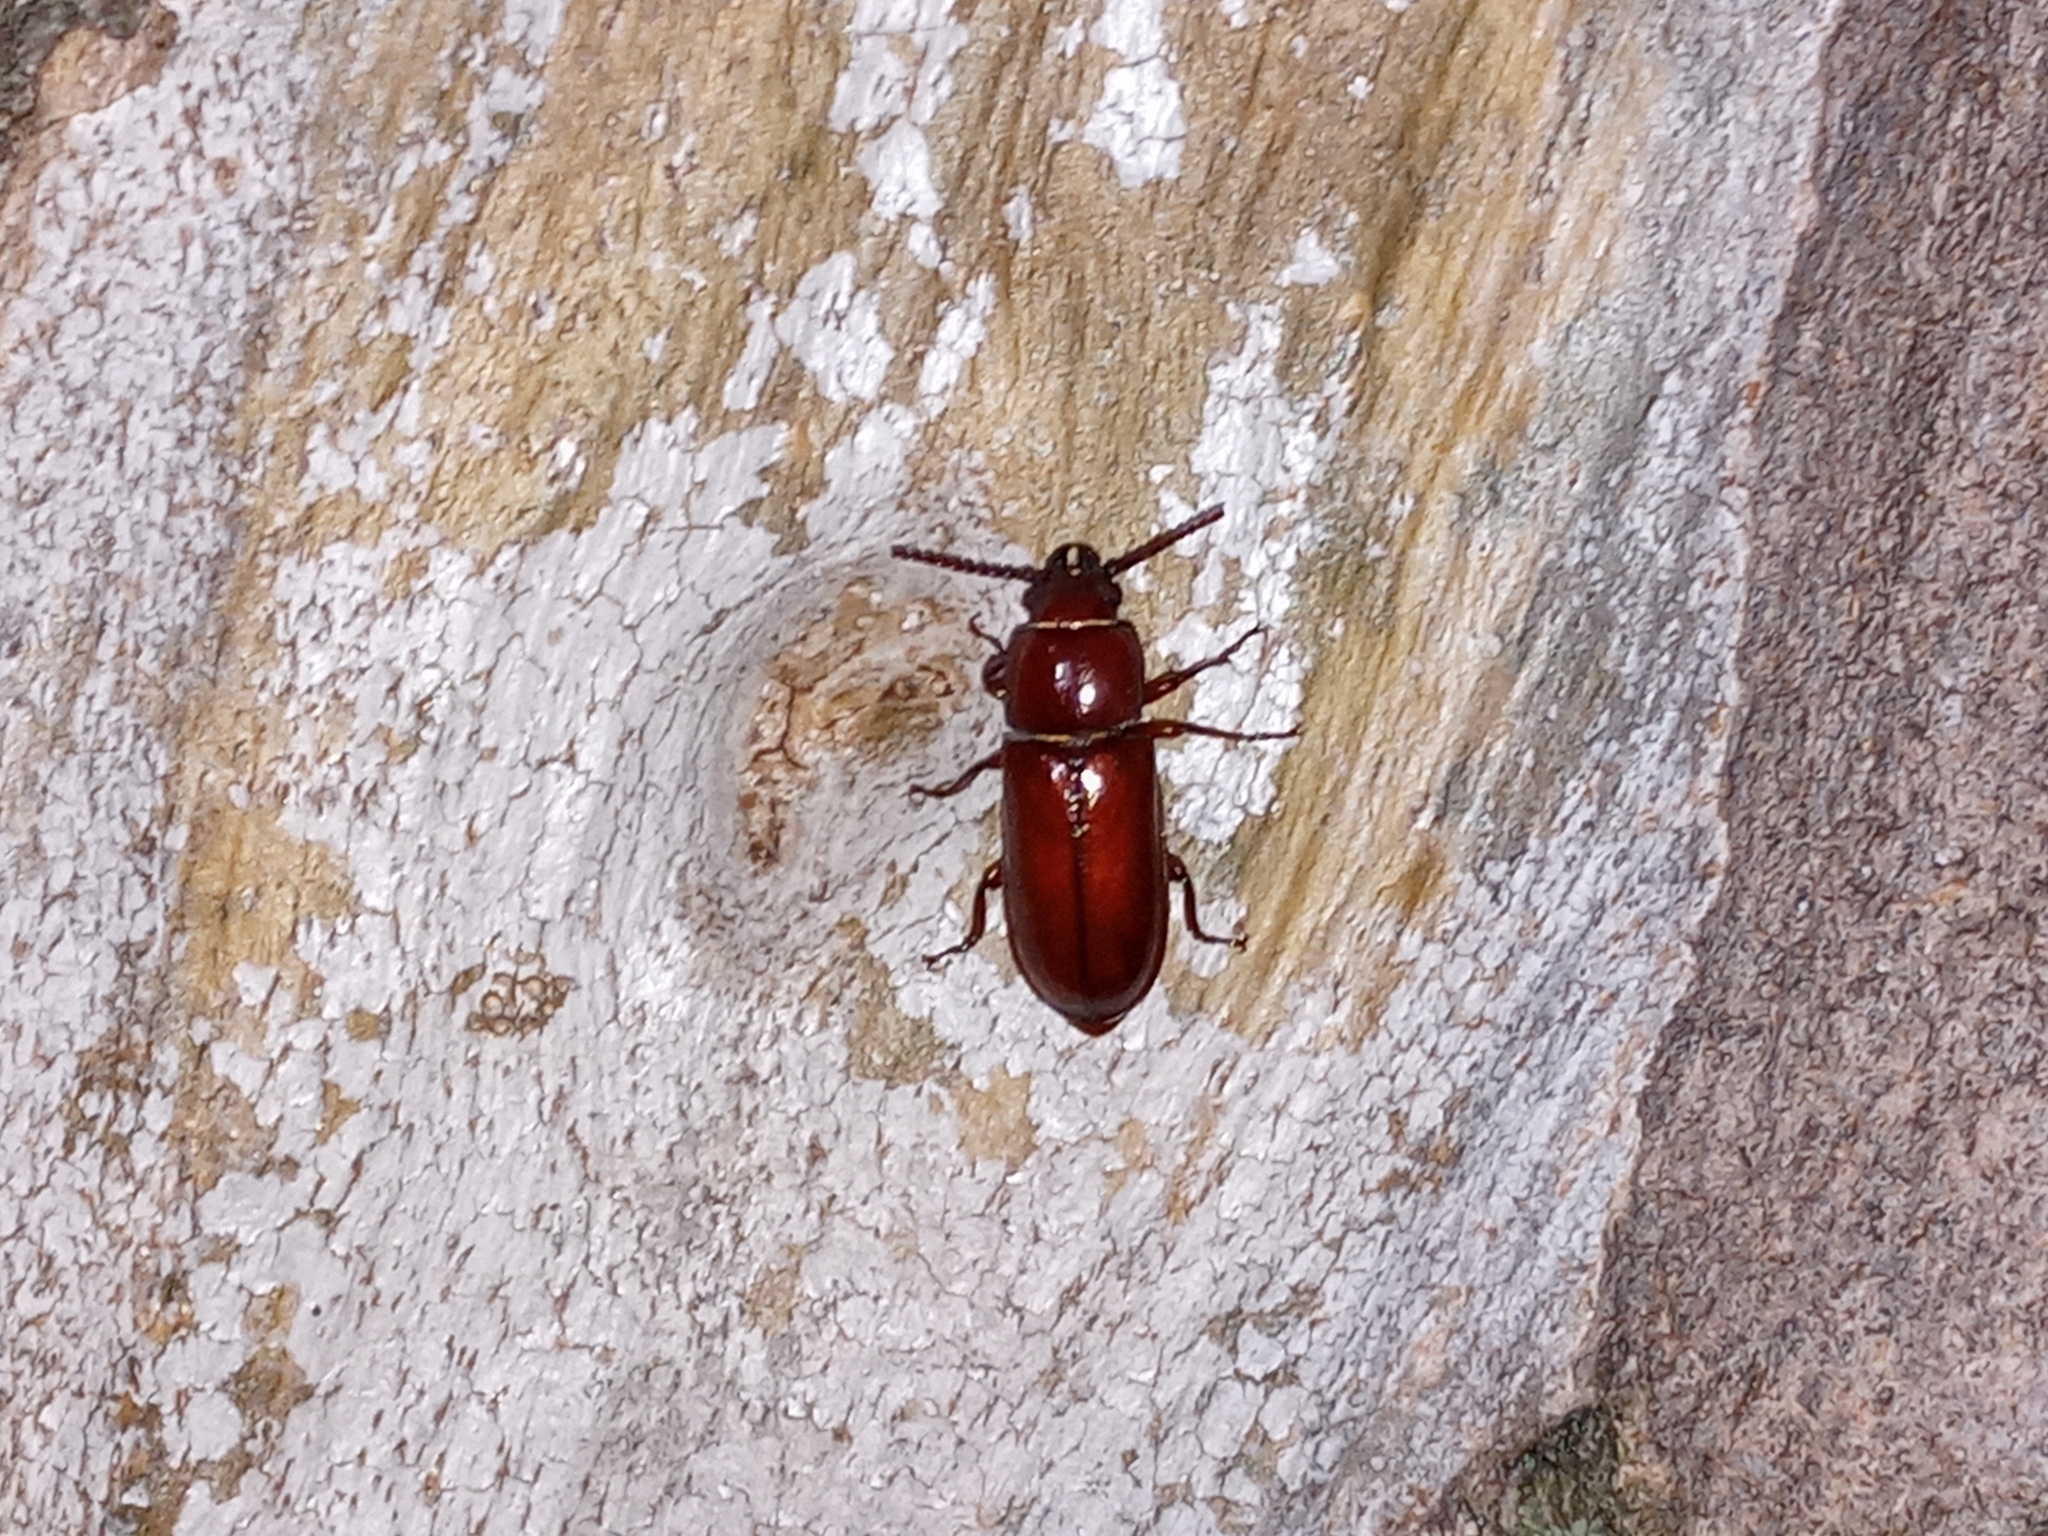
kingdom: Animalia
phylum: Arthropoda
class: Insecta
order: Coleoptera
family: Cerambycidae
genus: Neandra
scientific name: Neandra brunnea
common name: Pole borer
